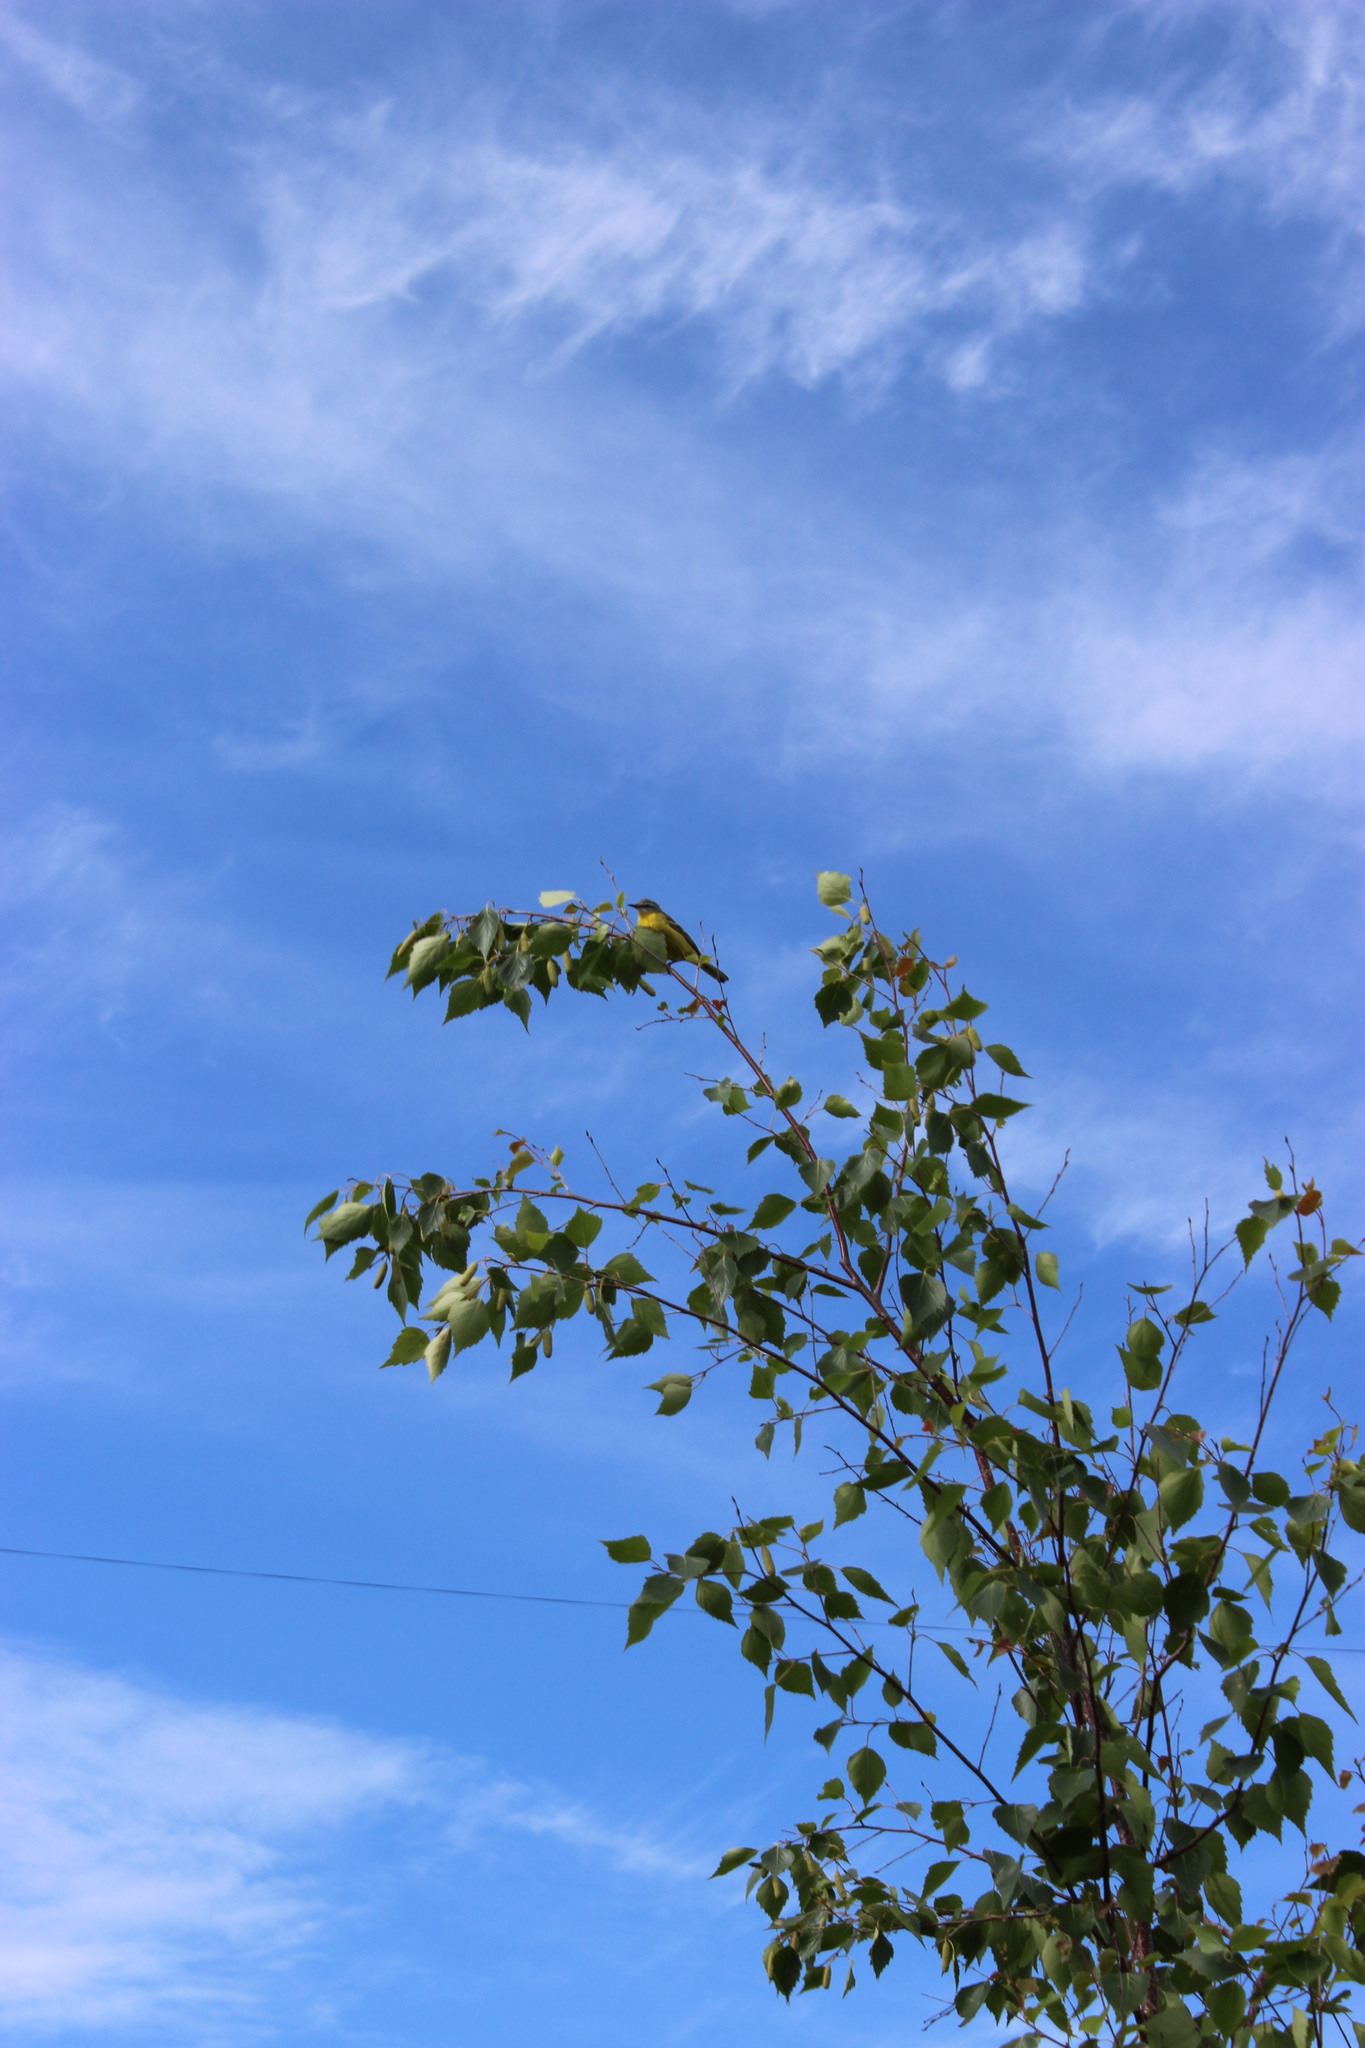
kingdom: Animalia
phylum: Chordata
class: Aves
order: Passeriformes
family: Motacillidae
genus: Motacilla
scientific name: Motacilla flava
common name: Western yellow wagtail
